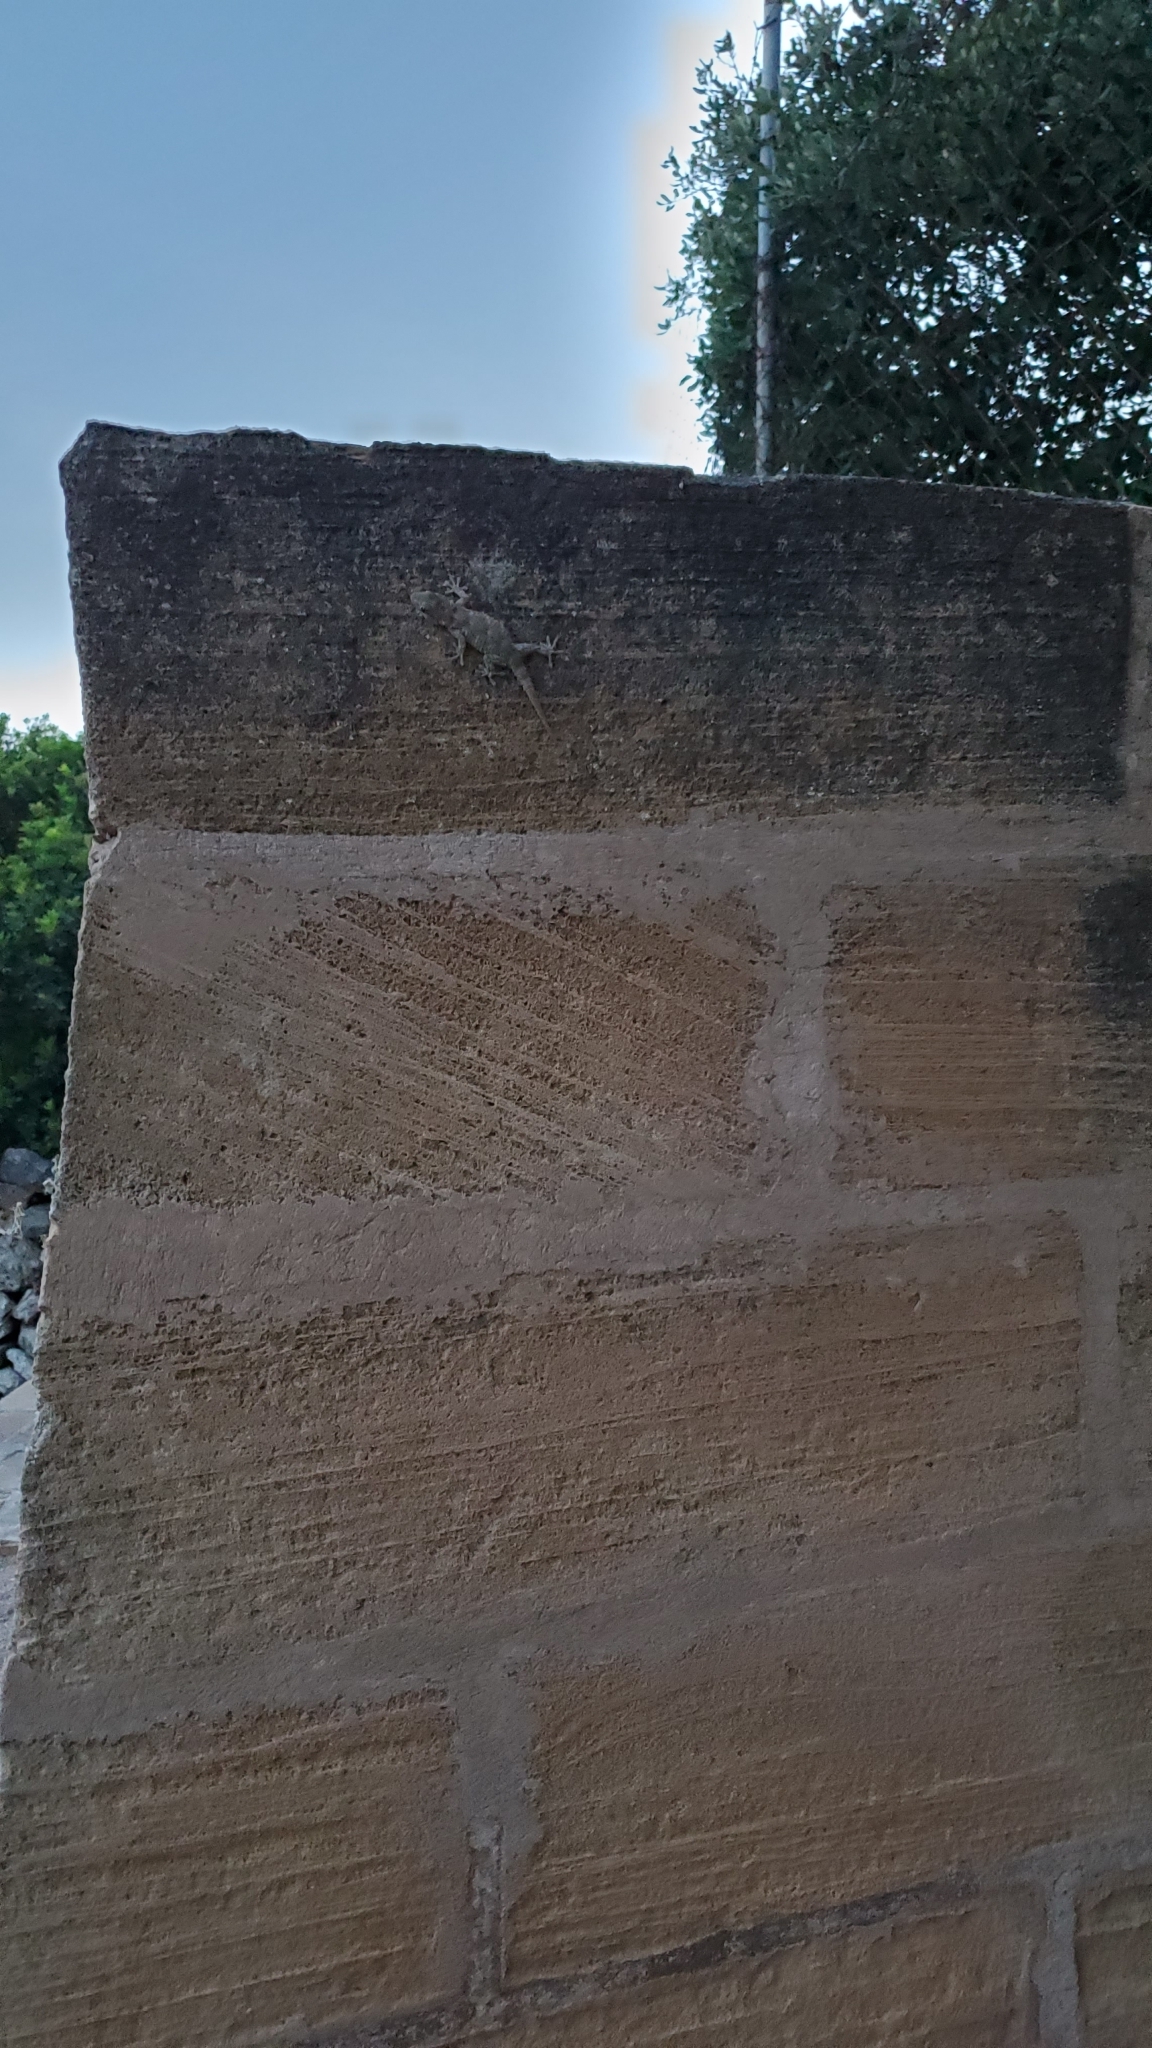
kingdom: Animalia
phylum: Chordata
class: Squamata
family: Phyllodactylidae
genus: Tarentola
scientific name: Tarentola mauritanica
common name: Moorish gecko
